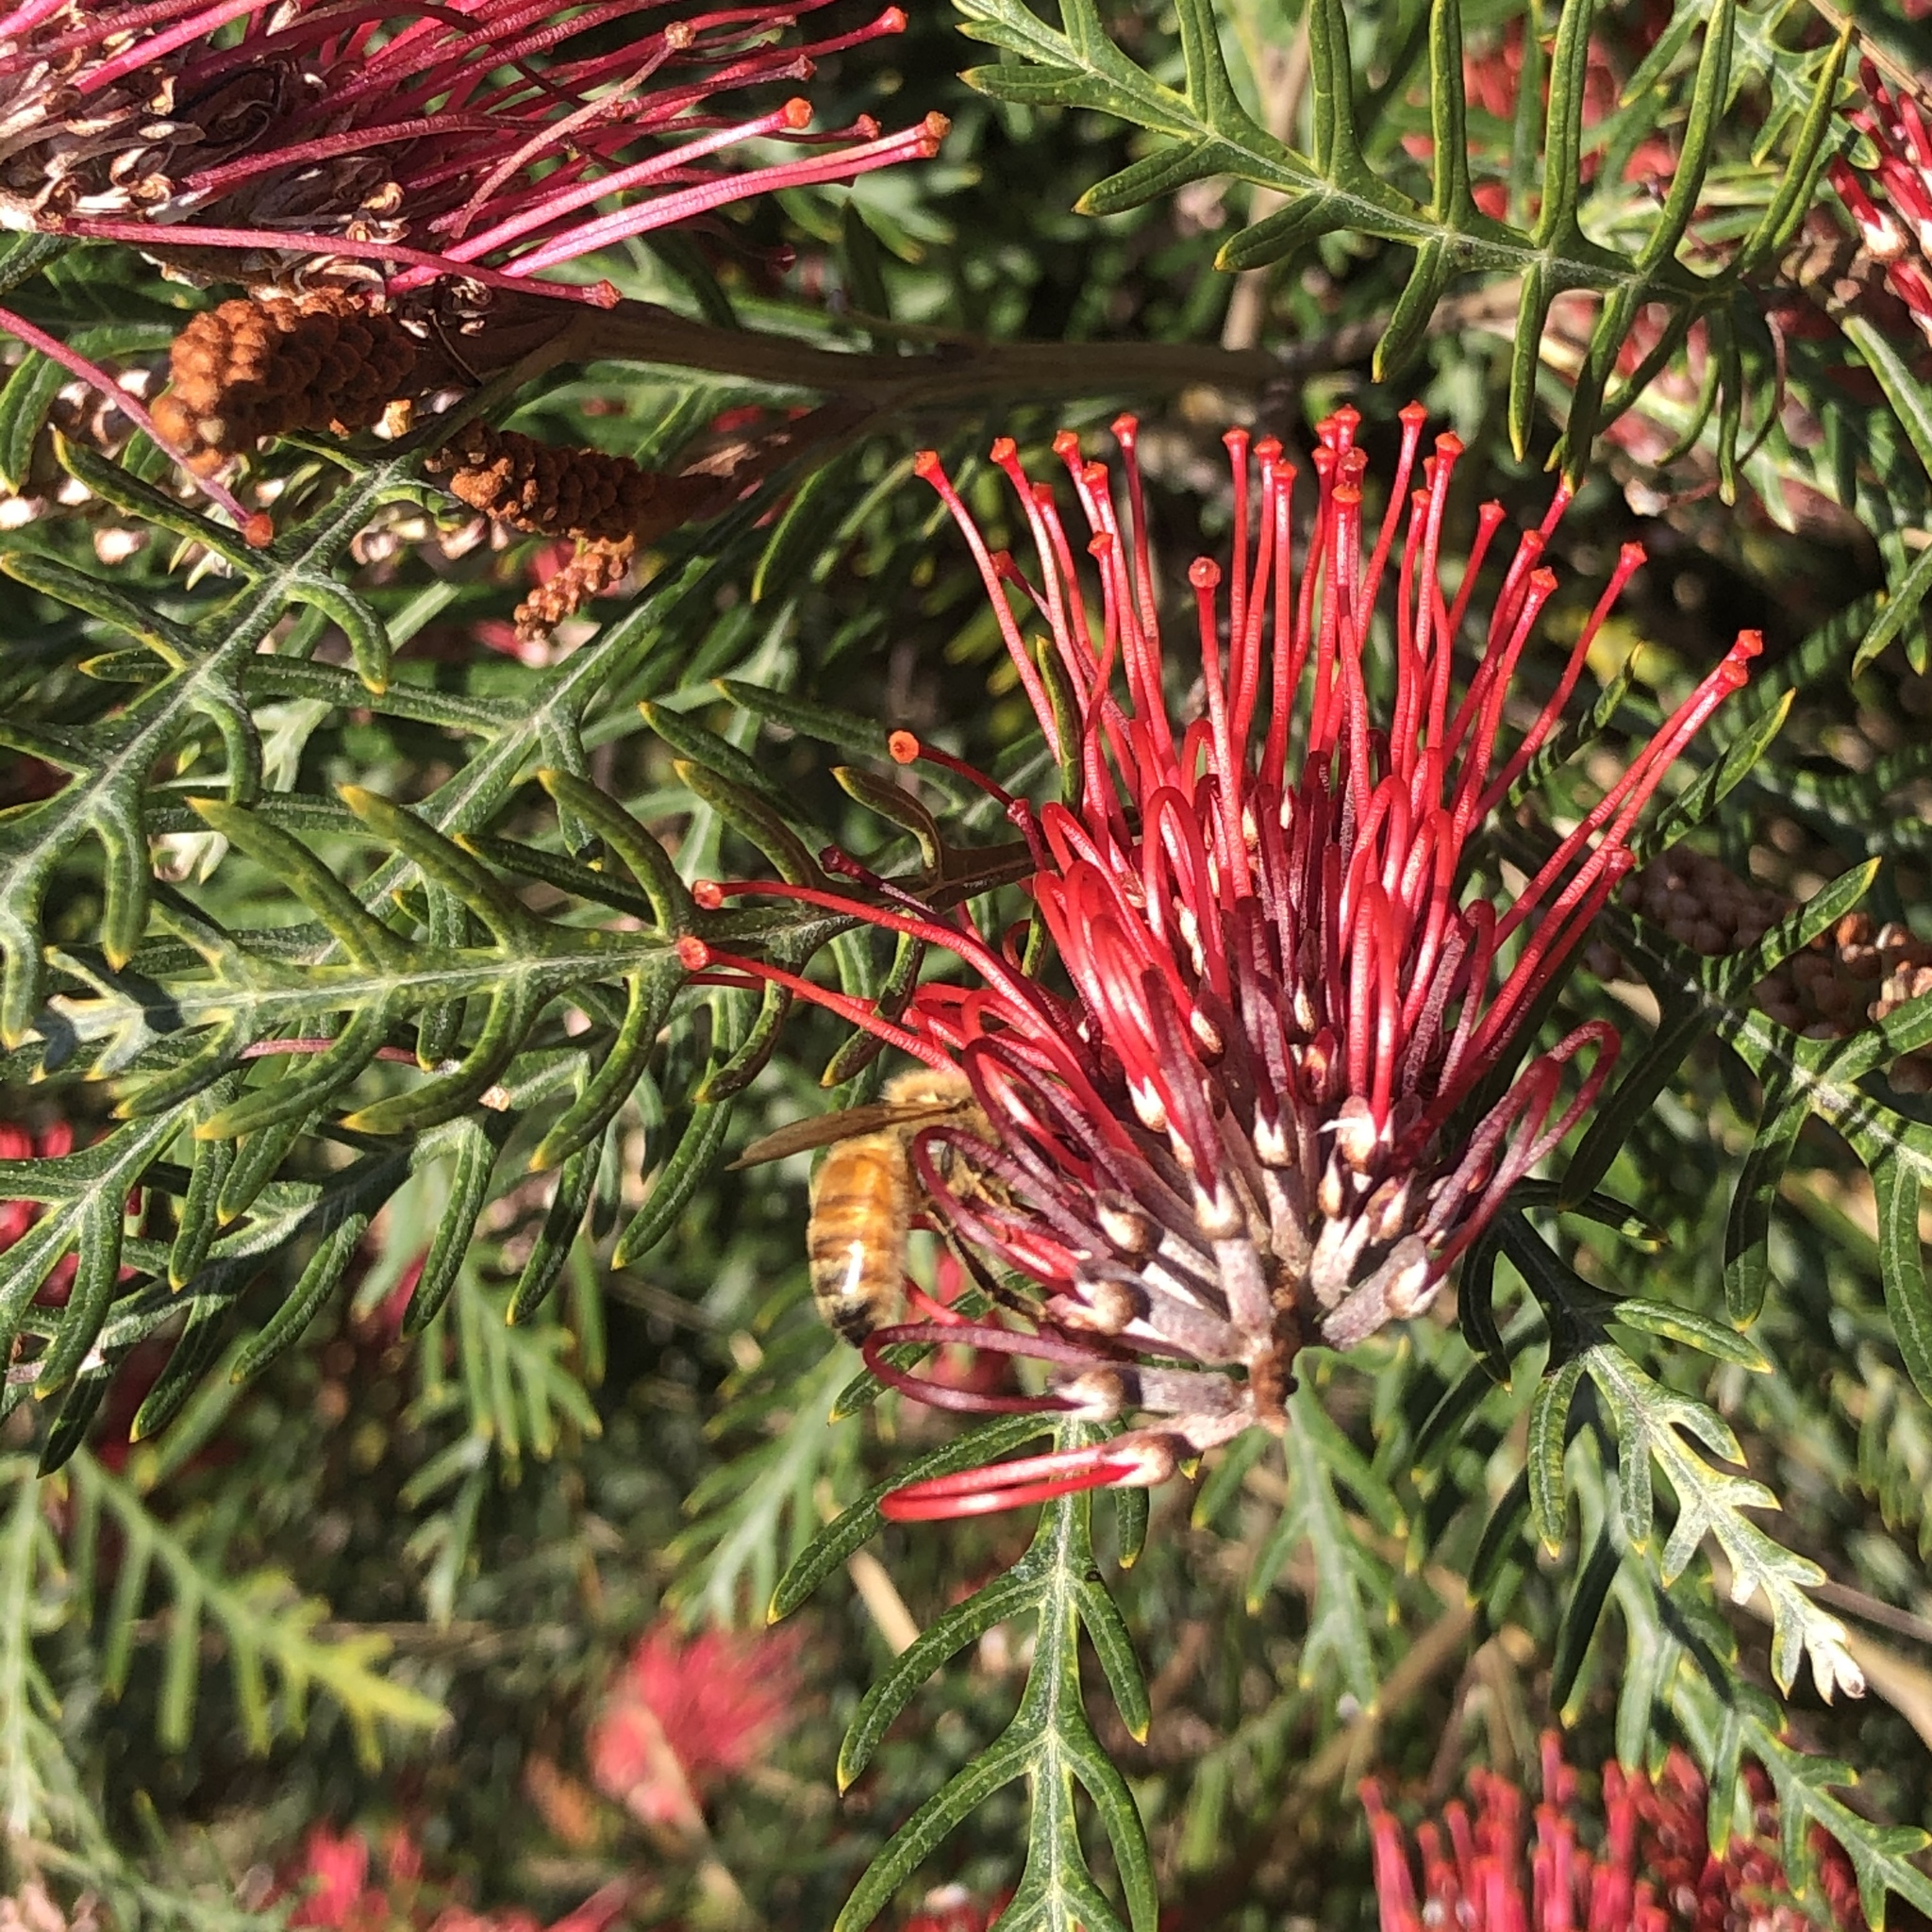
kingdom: Animalia
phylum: Arthropoda
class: Insecta
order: Hymenoptera
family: Apidae
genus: Apis
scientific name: Apis mellifera
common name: Honey bee
